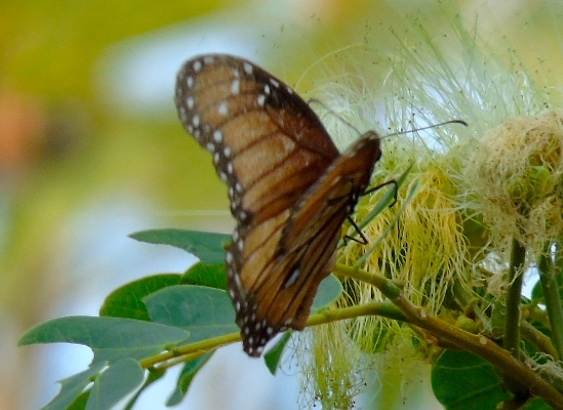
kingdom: Animalia
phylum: Arthropoda
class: Insecta
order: Lepidoptera
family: Nymphalidae
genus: Danaus
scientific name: Danaus eresimus
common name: Soldier
